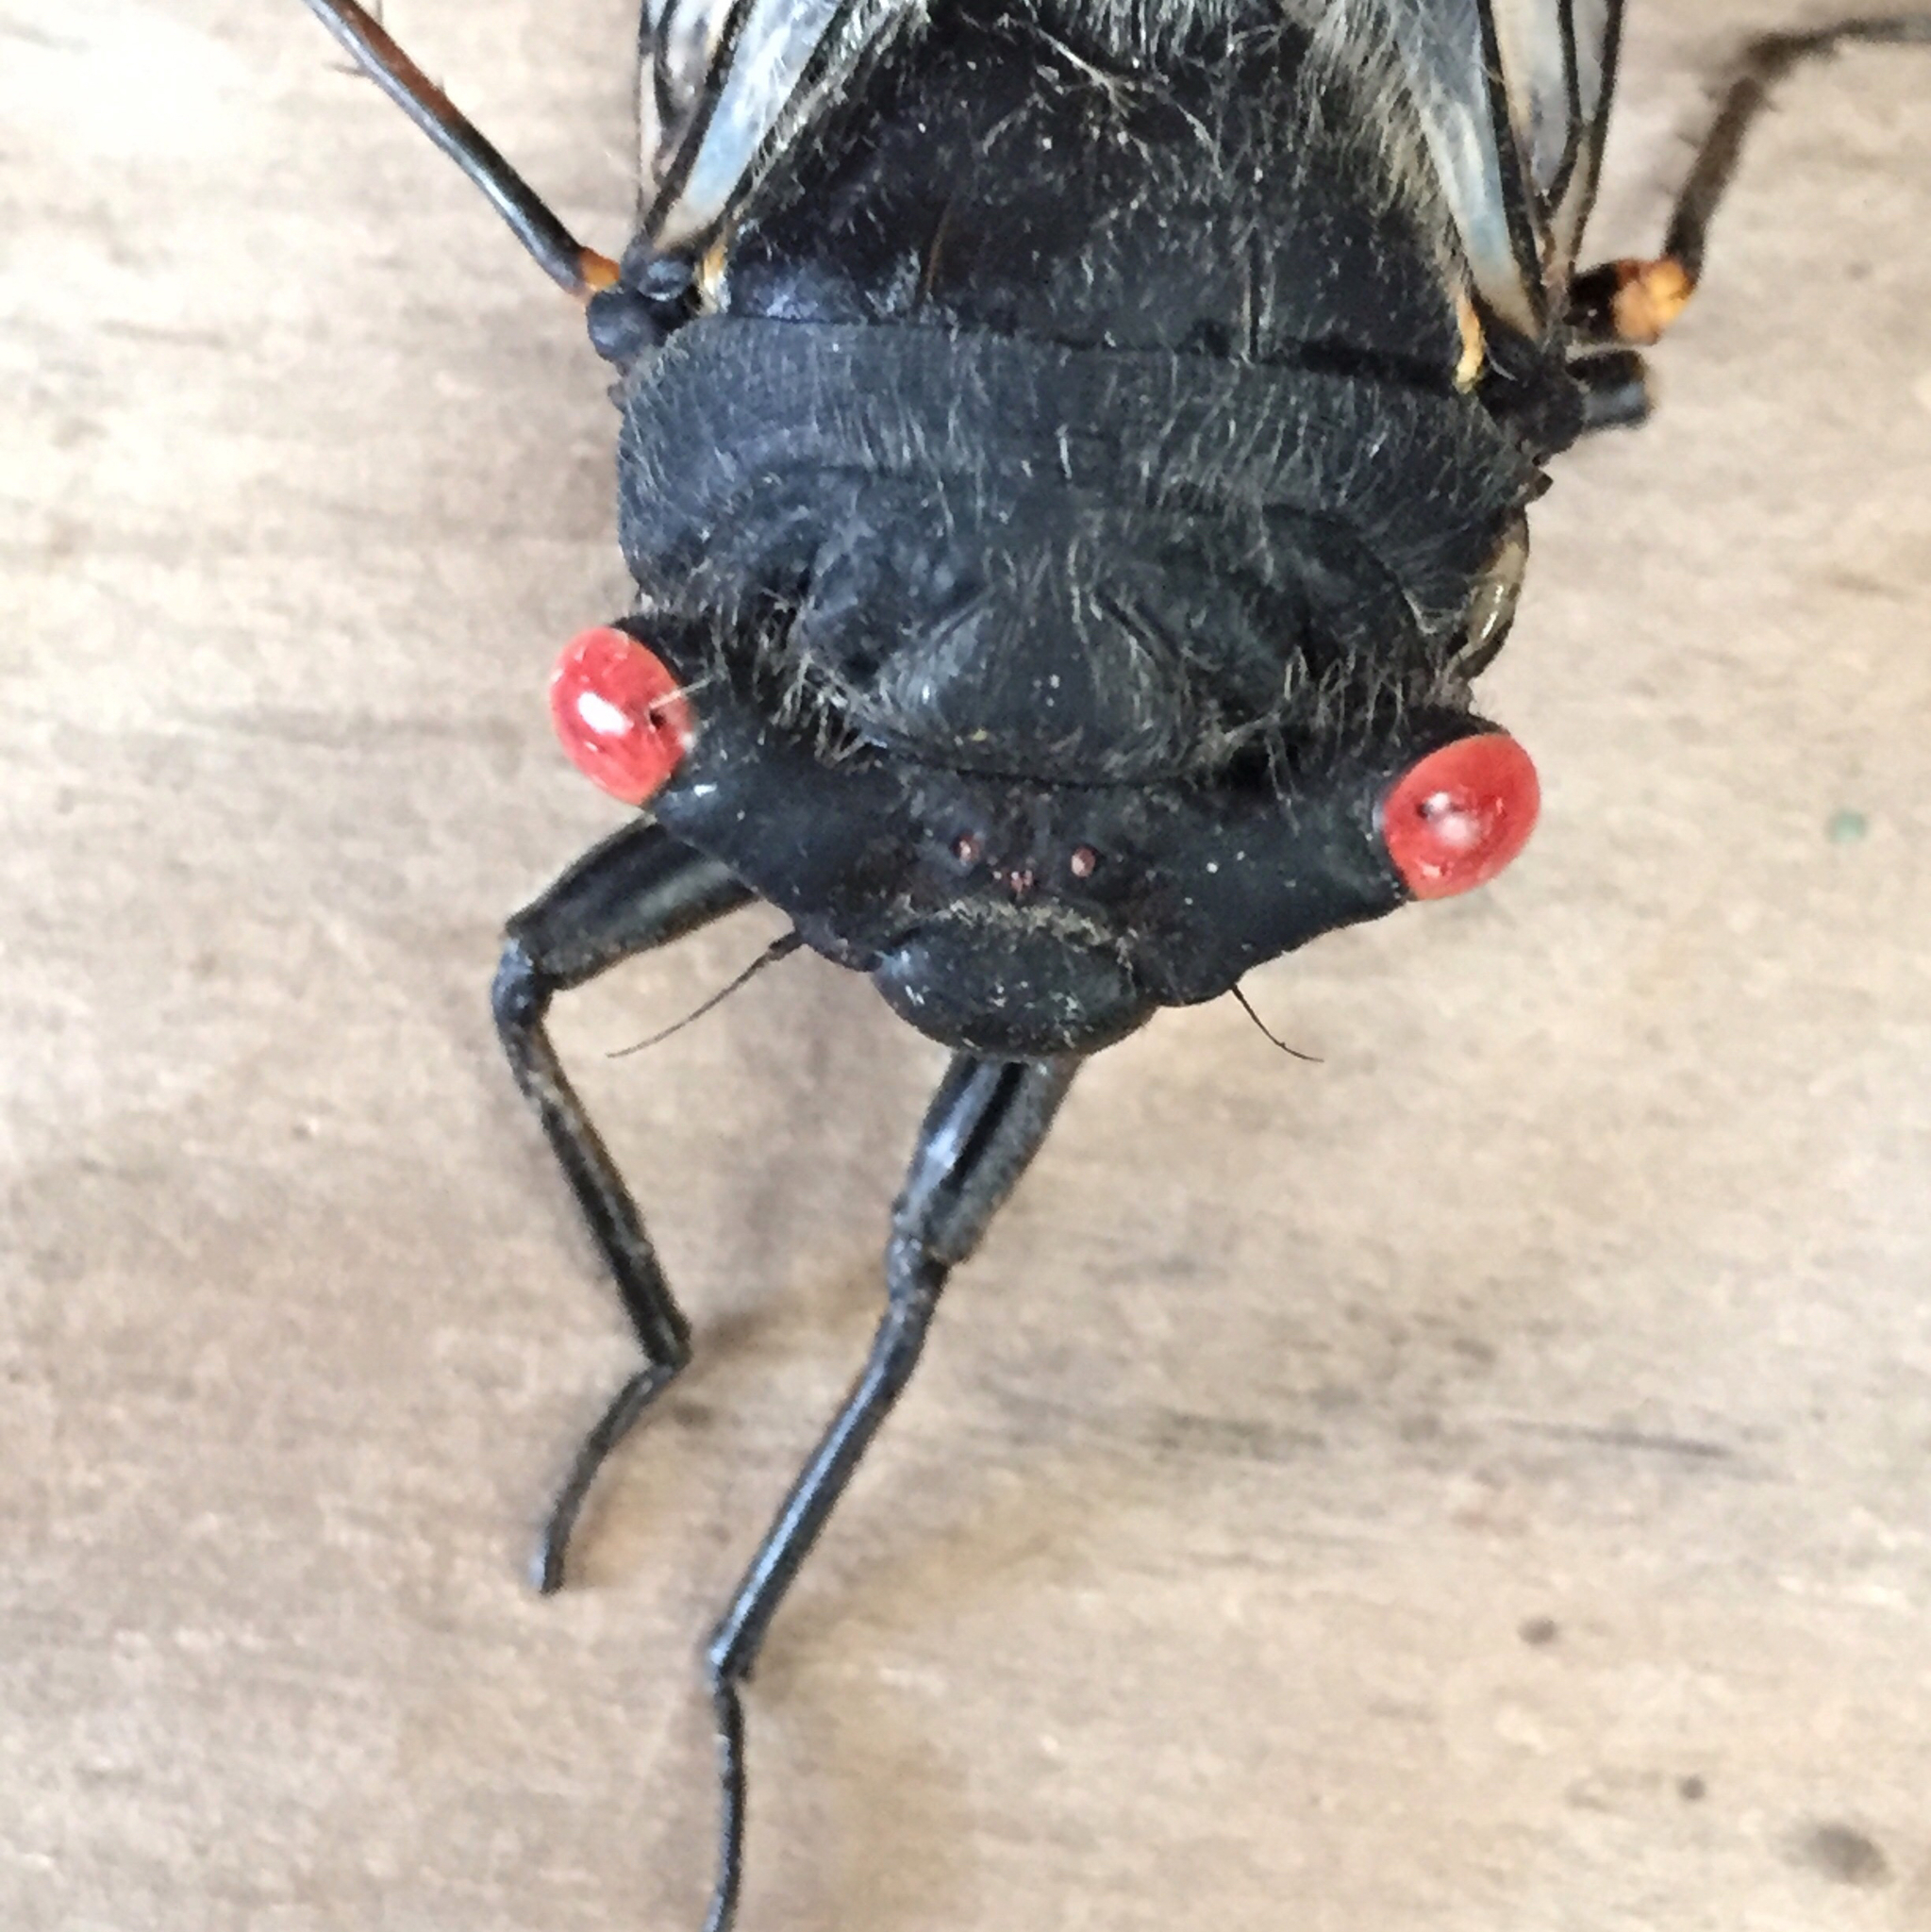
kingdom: Animalia
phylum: Arthropoda
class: Insecta
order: Hemiptera
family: Cicadidae
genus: Psaltoda
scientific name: Psaltoda moerens
